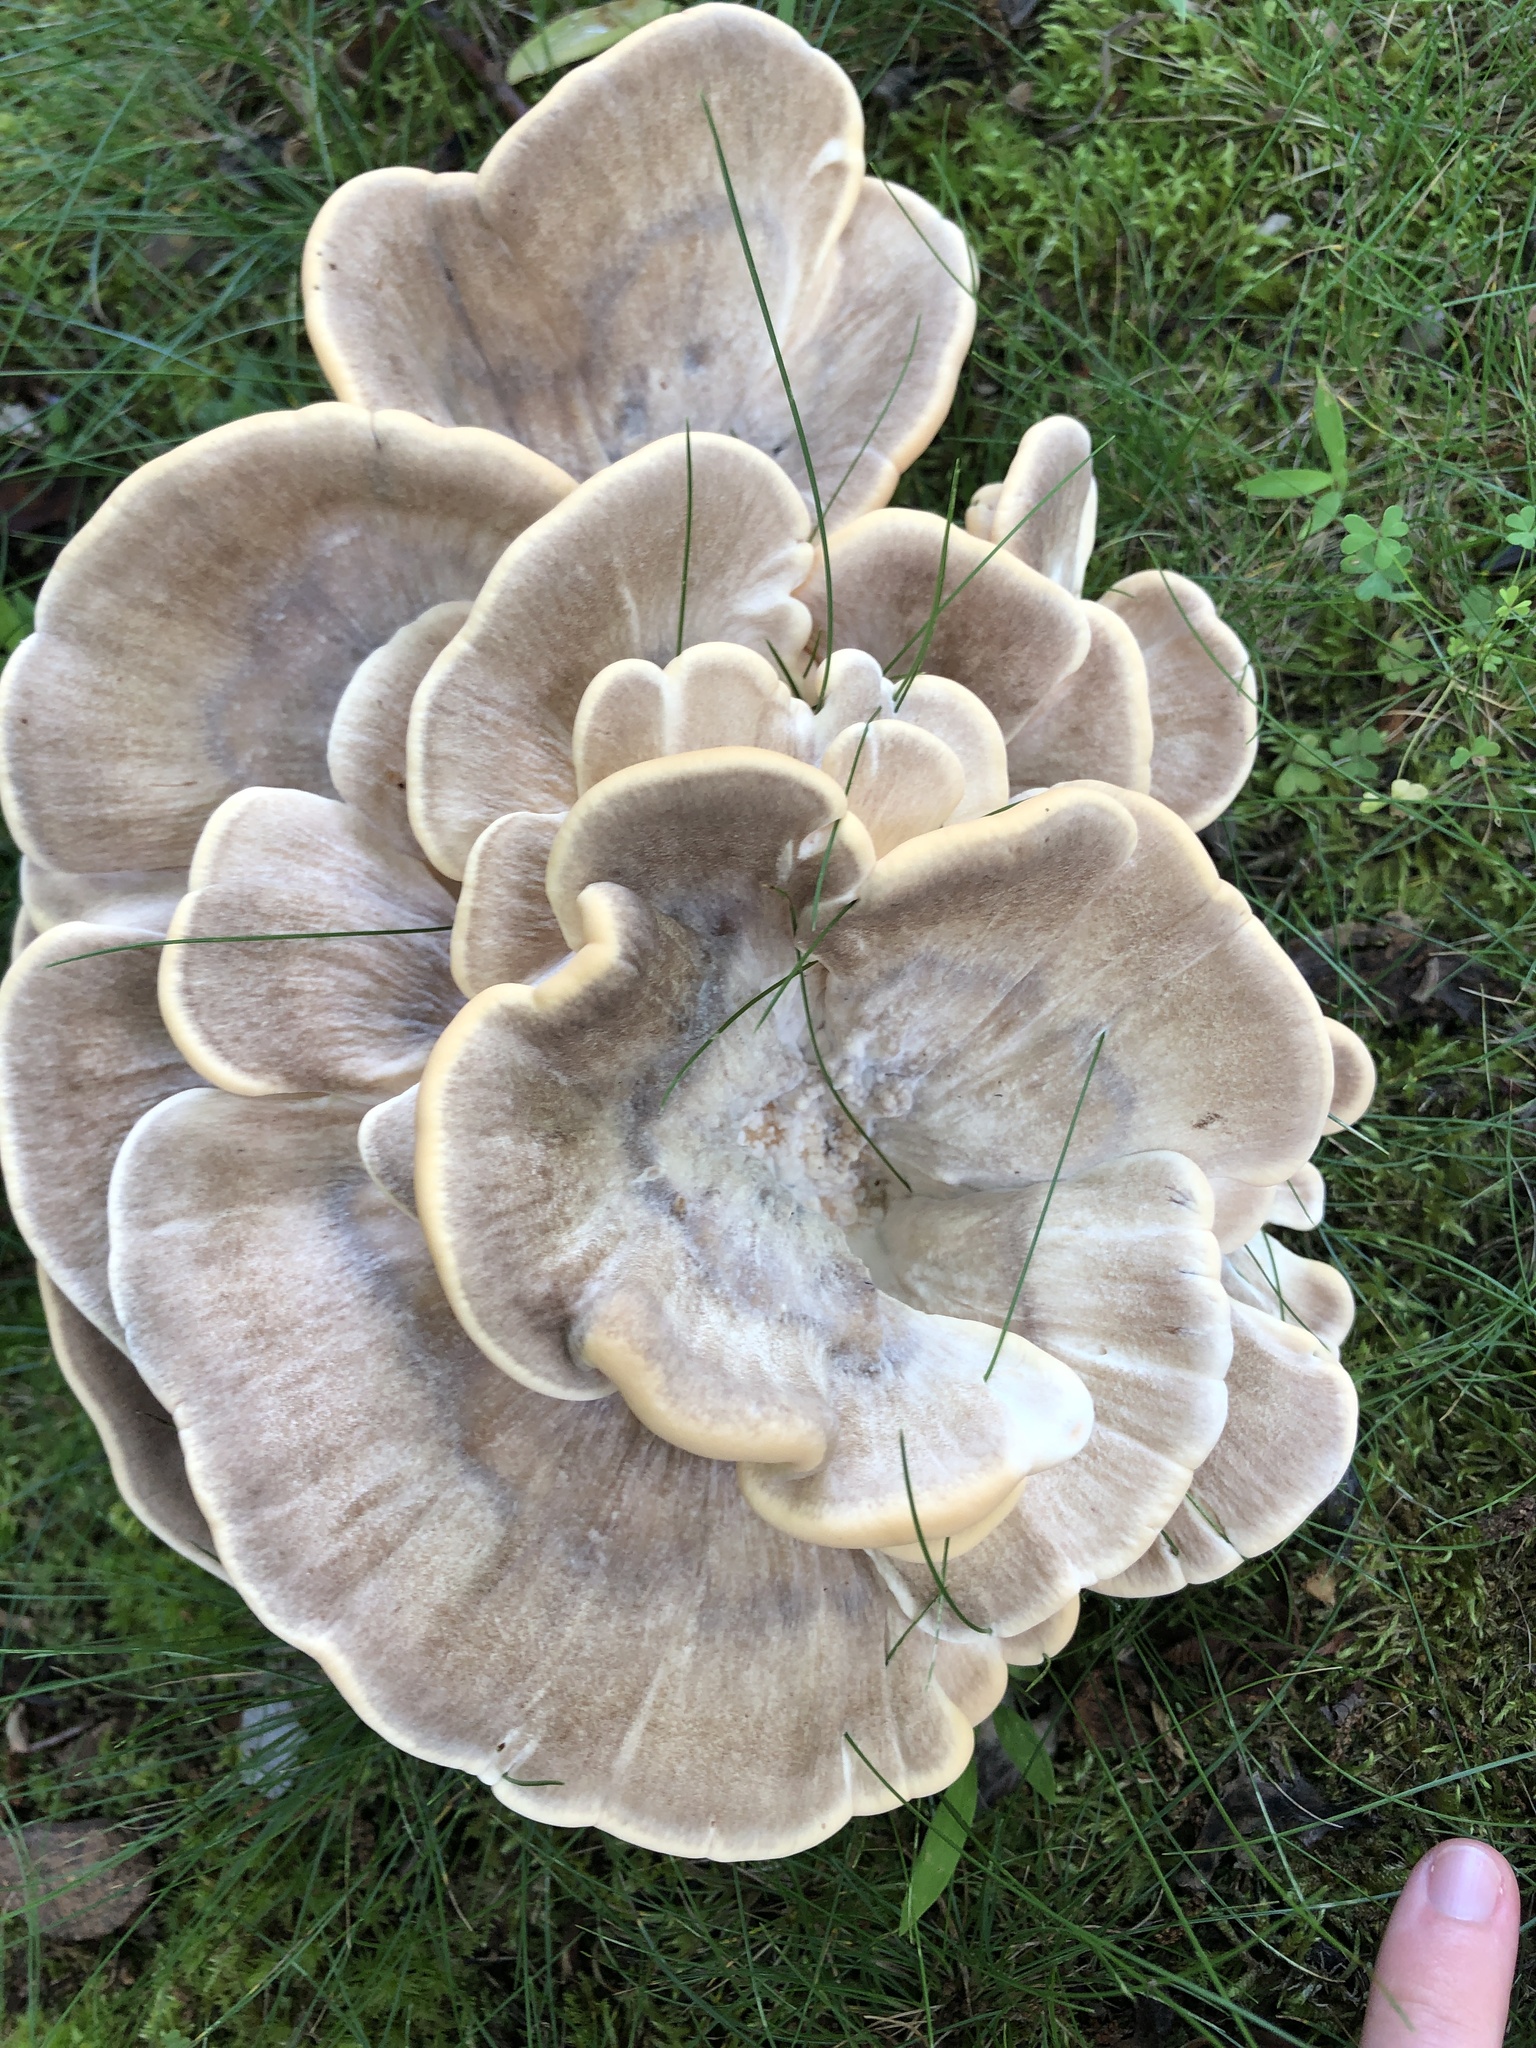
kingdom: Fungi
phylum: Basidiomycota
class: Agaricomycetes
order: Polyporales
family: Meripilaceae
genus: Meripilus
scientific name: Meripilus sumstinei
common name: Black-staining polypore
